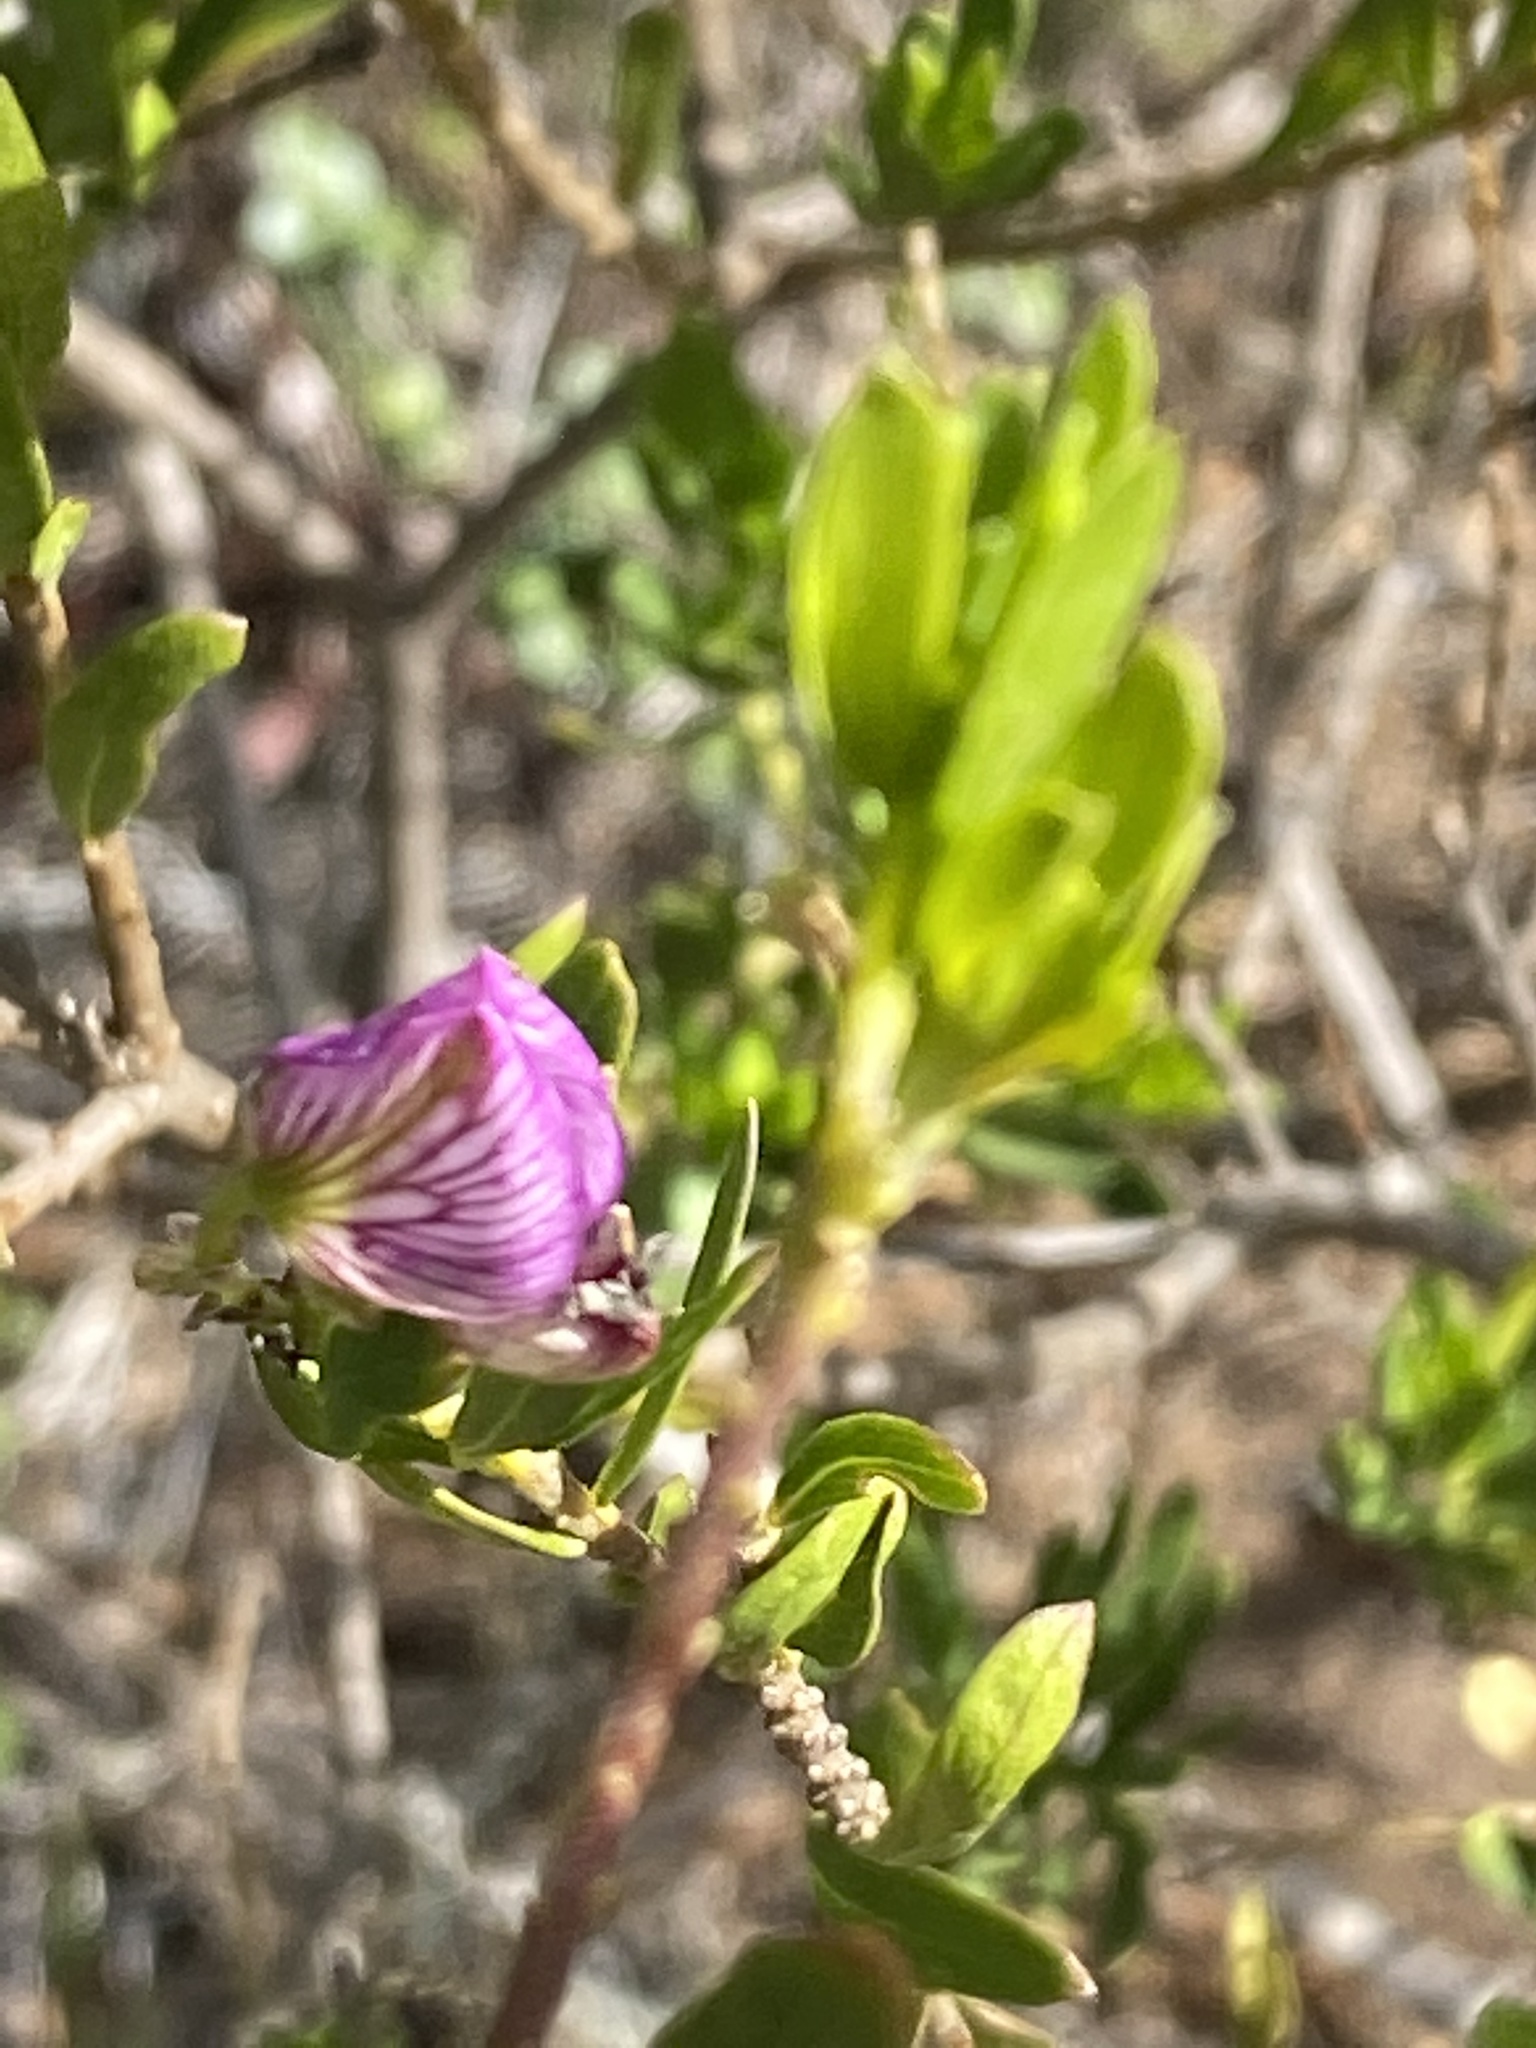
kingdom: Plantae
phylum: Tracheophyta
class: Magnoliopsida
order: Fabales
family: Polygalaceae
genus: Polygala
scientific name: Polygala myrtifolia
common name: Myrtle-leaf milkwort
